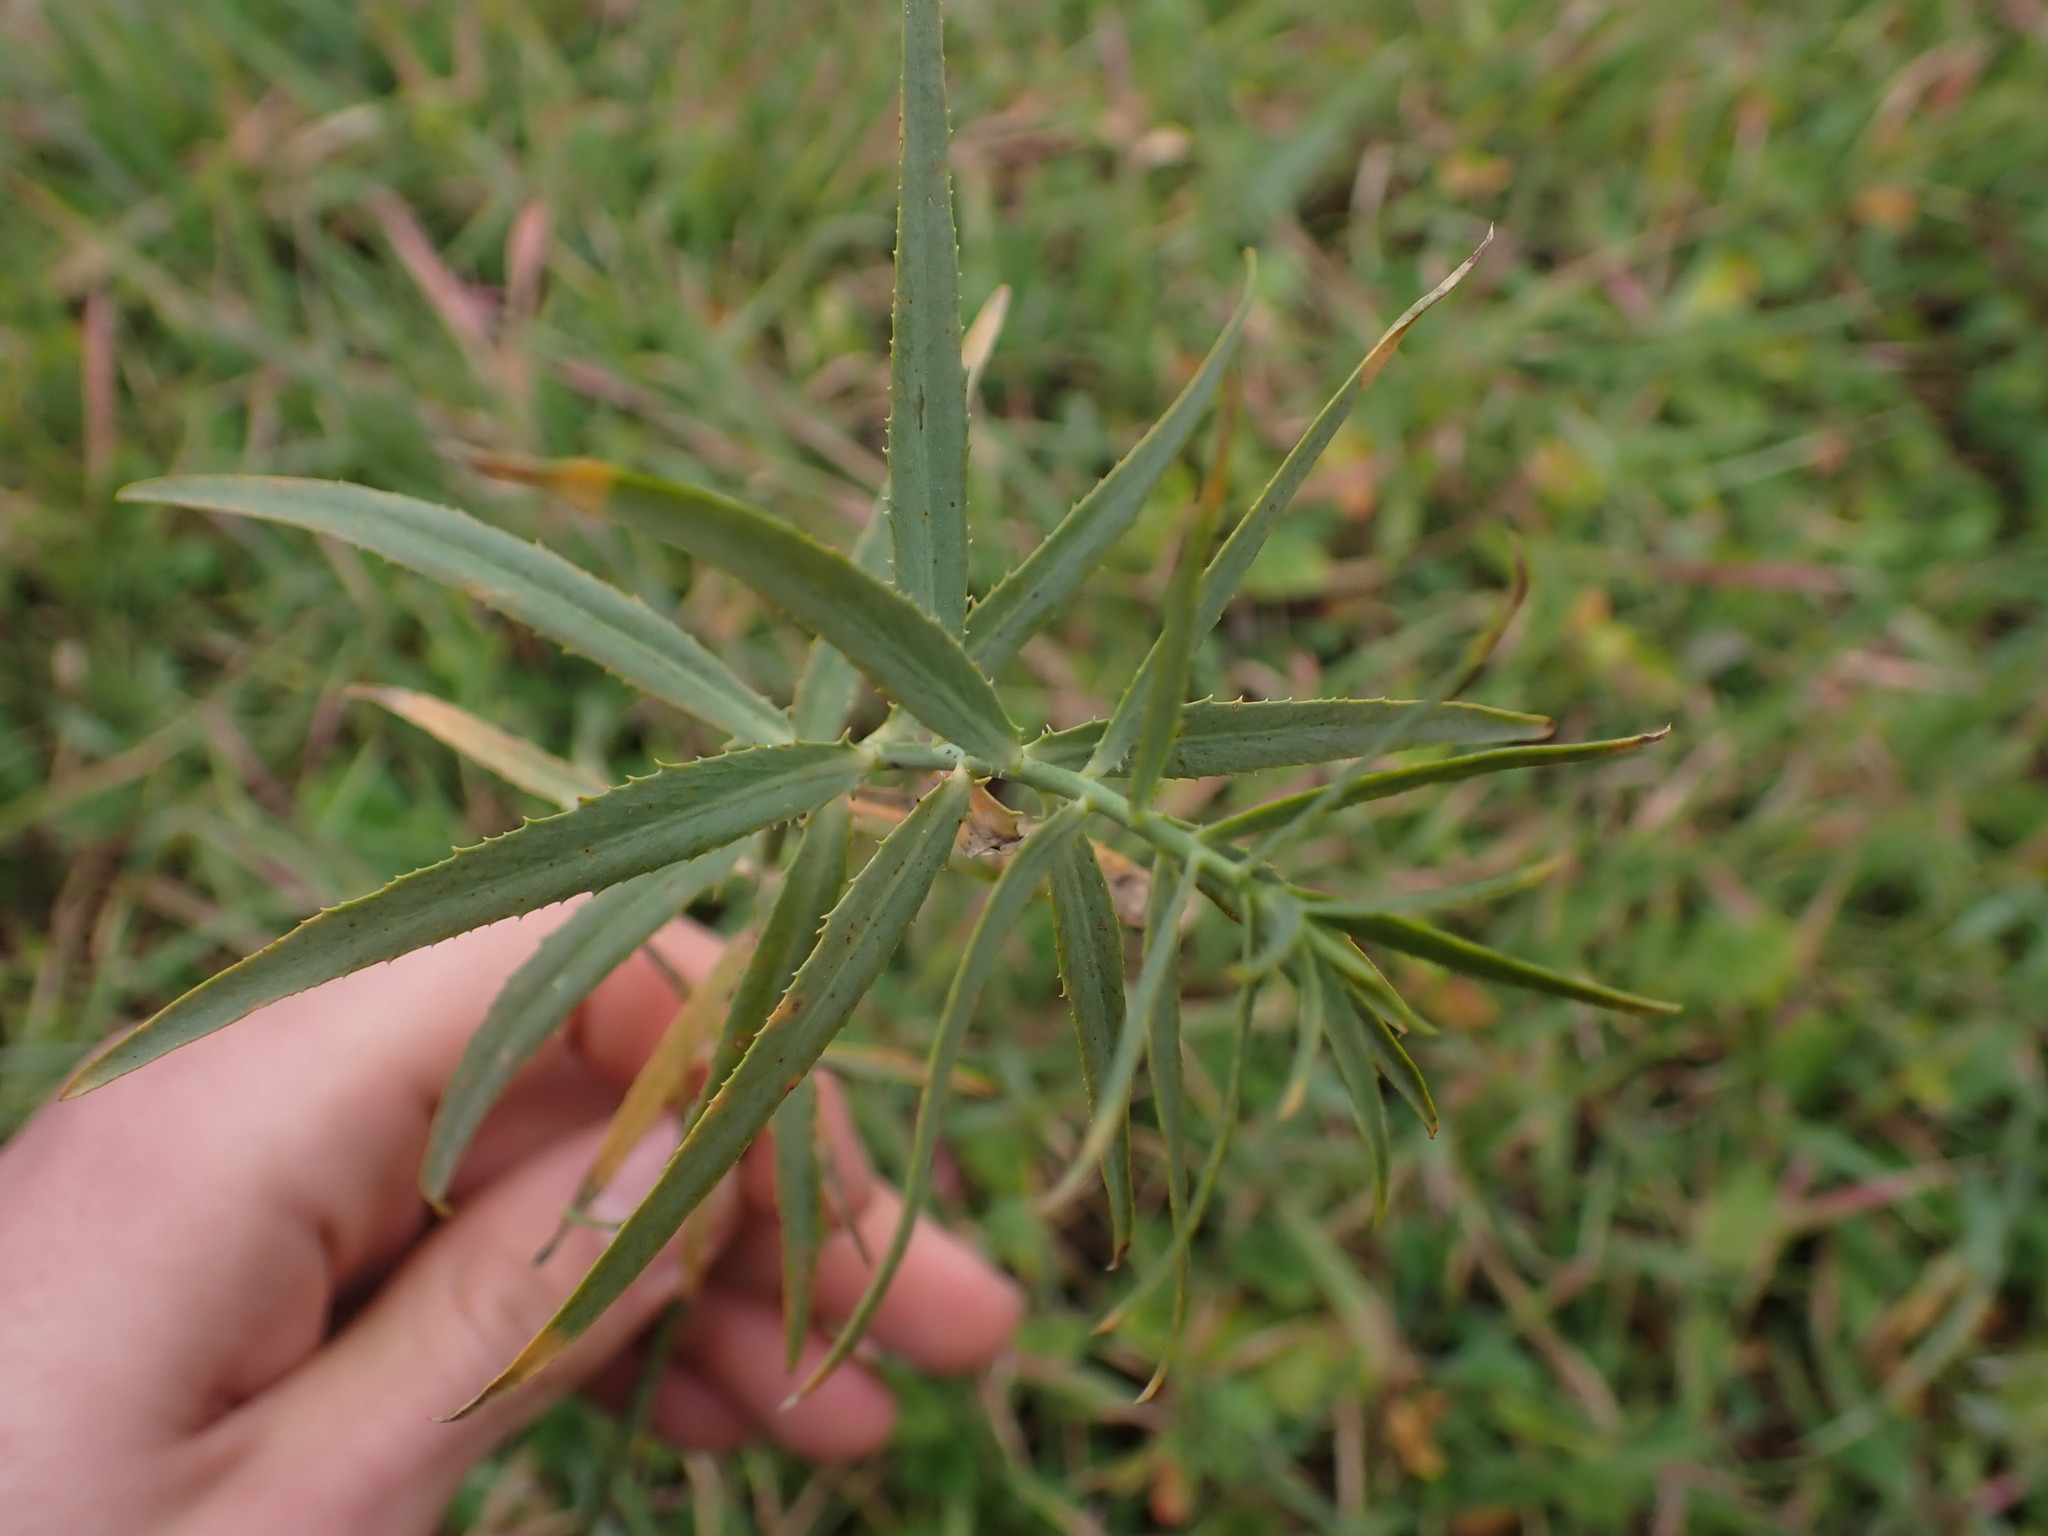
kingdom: Plantae
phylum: Tracheophyta
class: Magnoliopsida
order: Malpighiales
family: Euphorbiaceae
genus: Euphorbia
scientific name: Euphorbia serrata
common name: Serrate spurge
